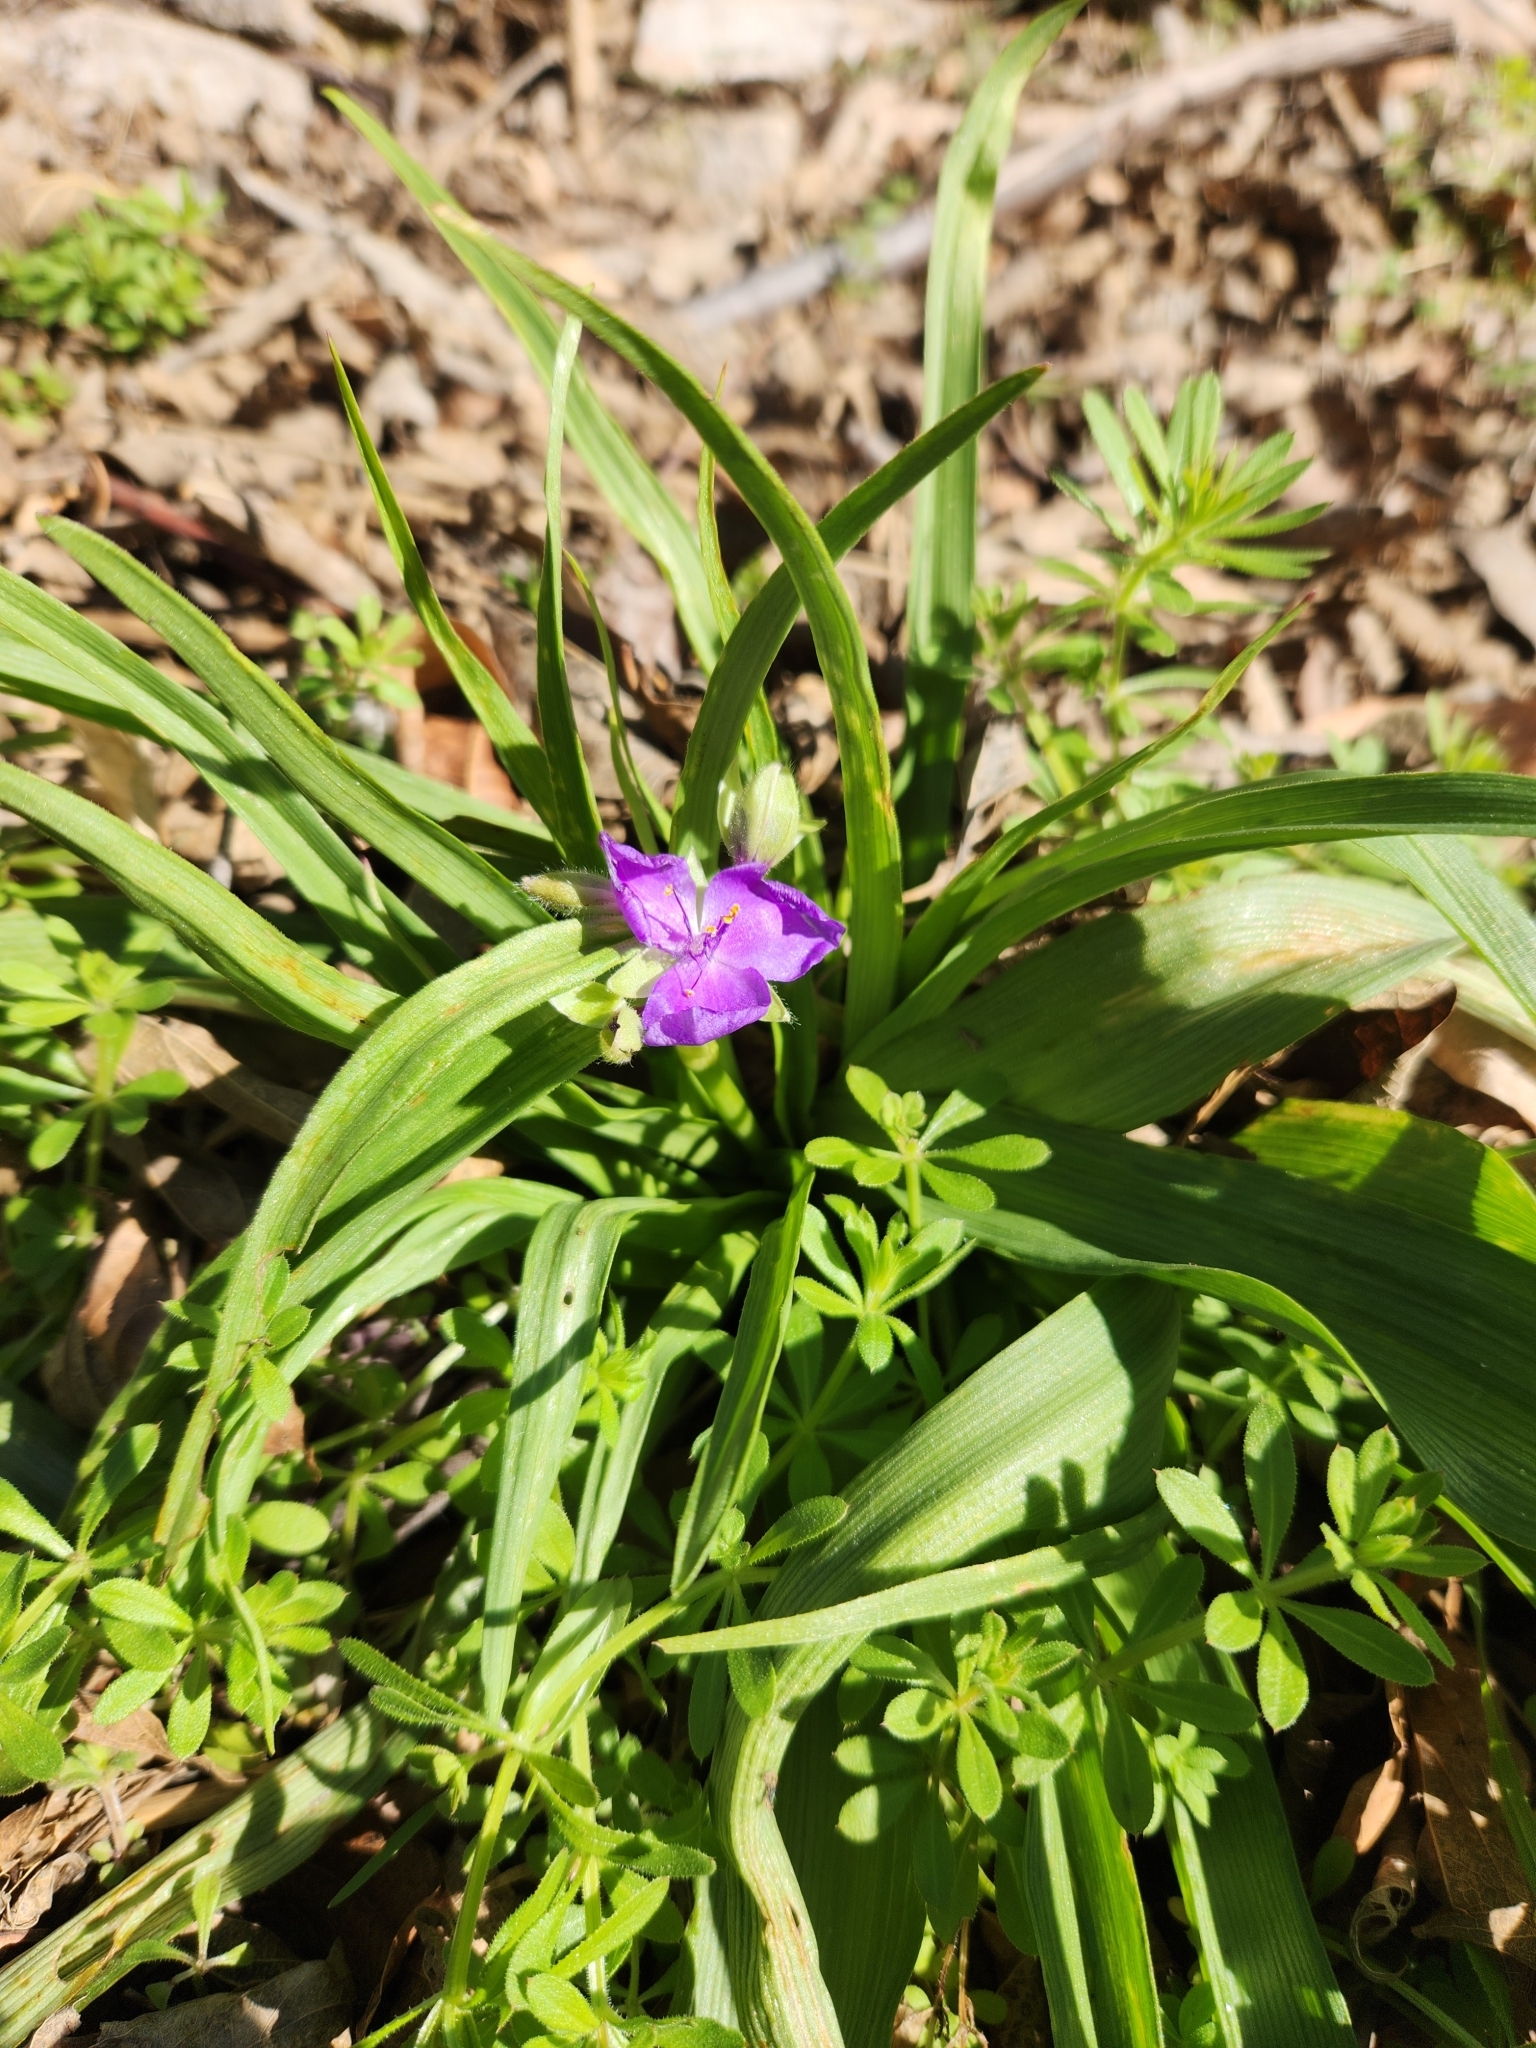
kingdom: Plantae
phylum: Tracheophyta
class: Liliopsida
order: Commelinales
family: Commelinaceae
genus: Tradescantia
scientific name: Tradescantia gigantea
